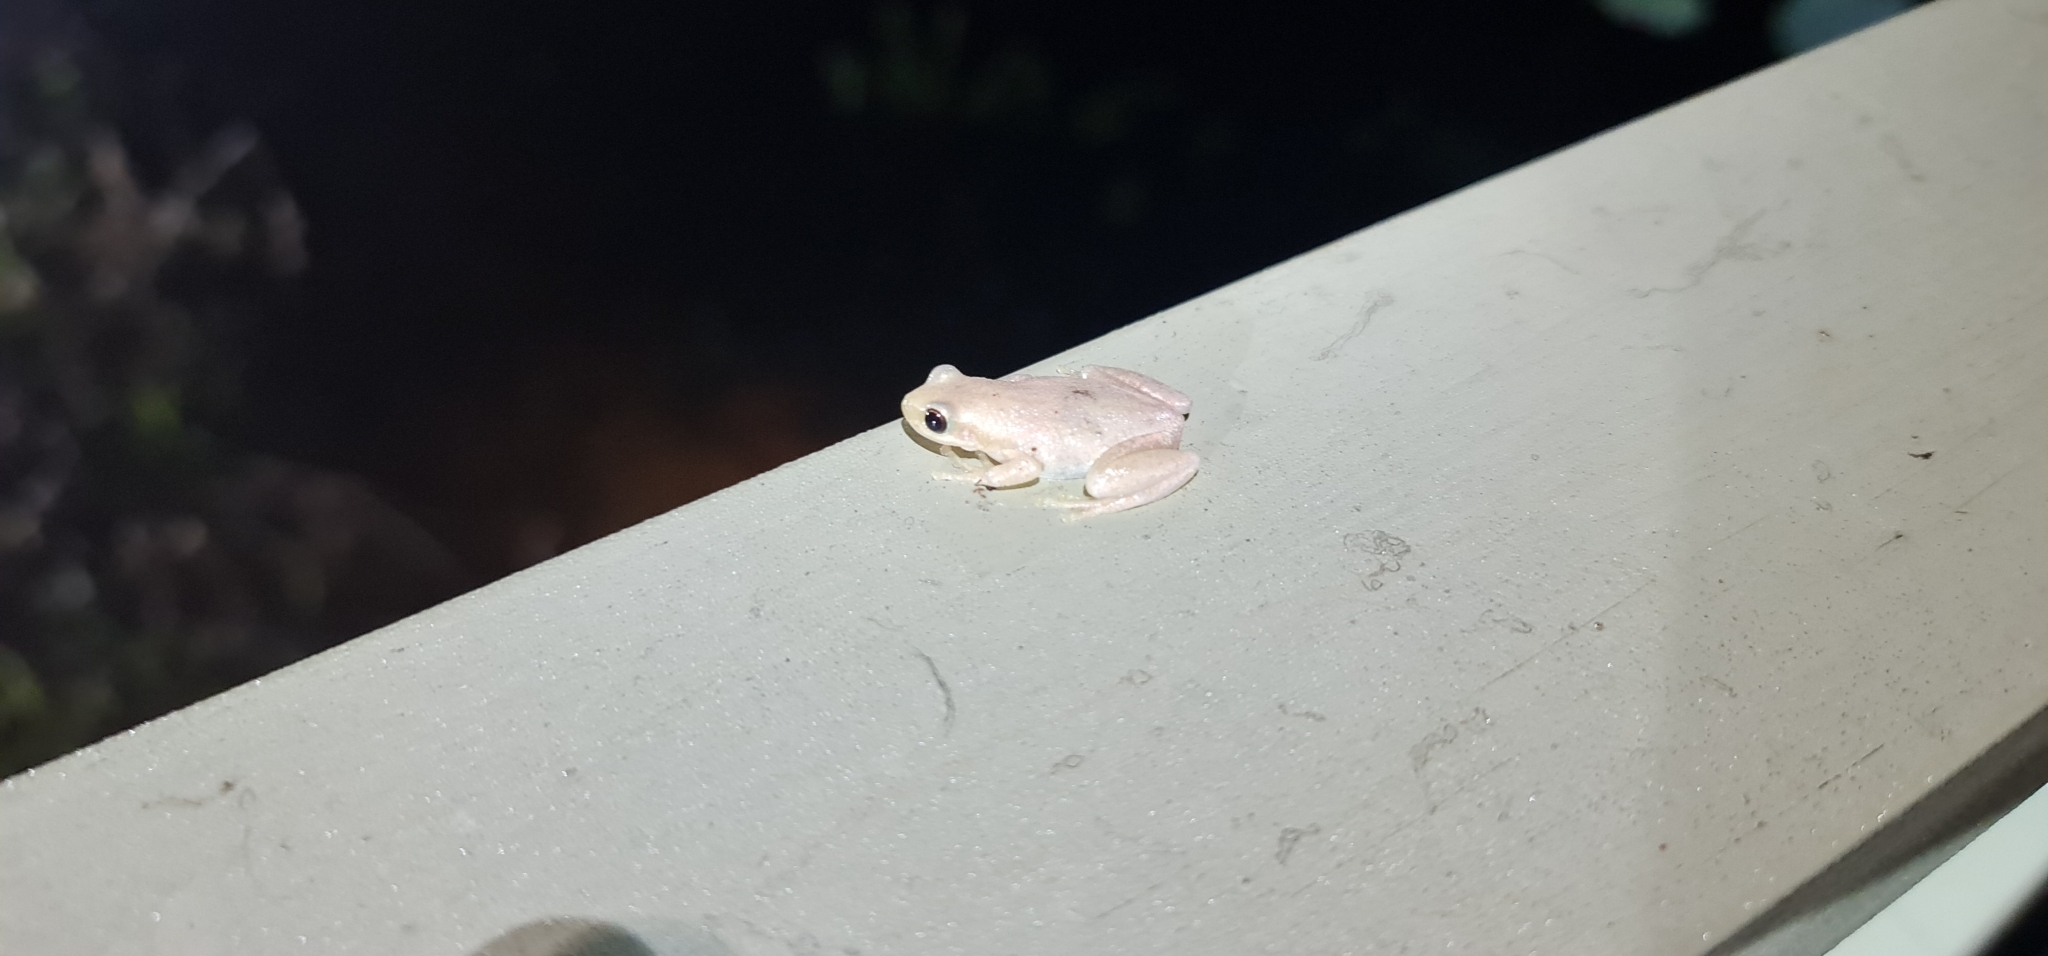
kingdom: Animalia
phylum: Chordata
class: Amphibia
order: Anura
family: Pelodryadidae
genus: Litoria
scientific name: Litoria rubella
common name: Desert tree frog
